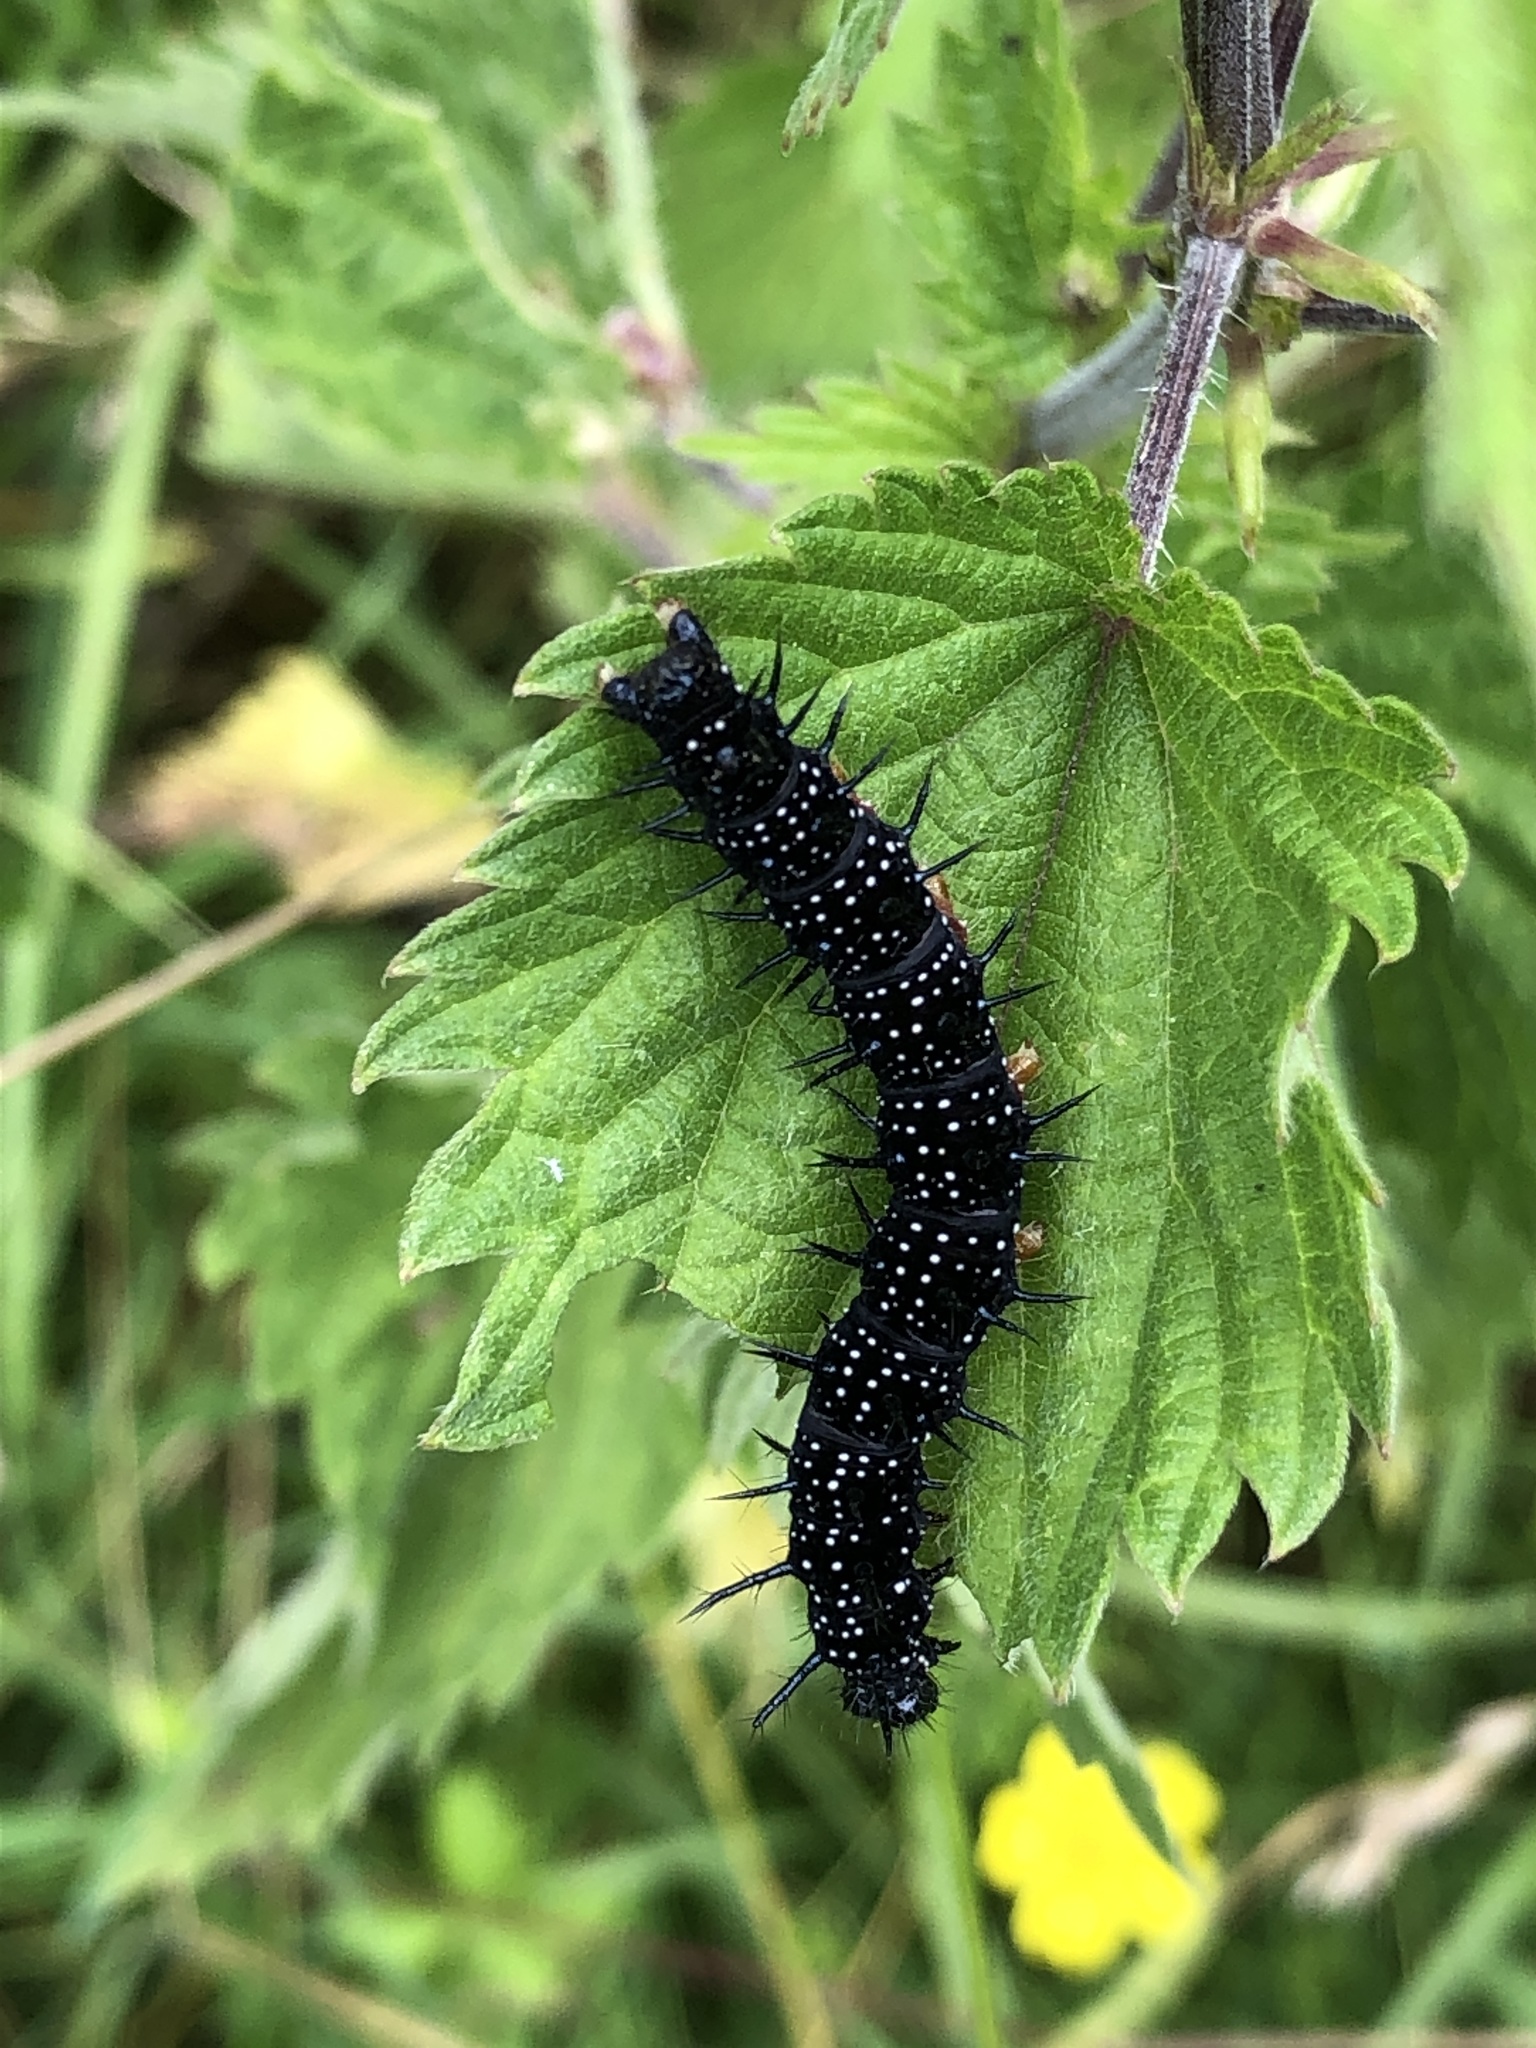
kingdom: Animalia
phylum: Arthropoda
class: Insecta
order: Lepidoptera
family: Nymphalidae
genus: Aglais
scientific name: Aglais io
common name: Peacock
